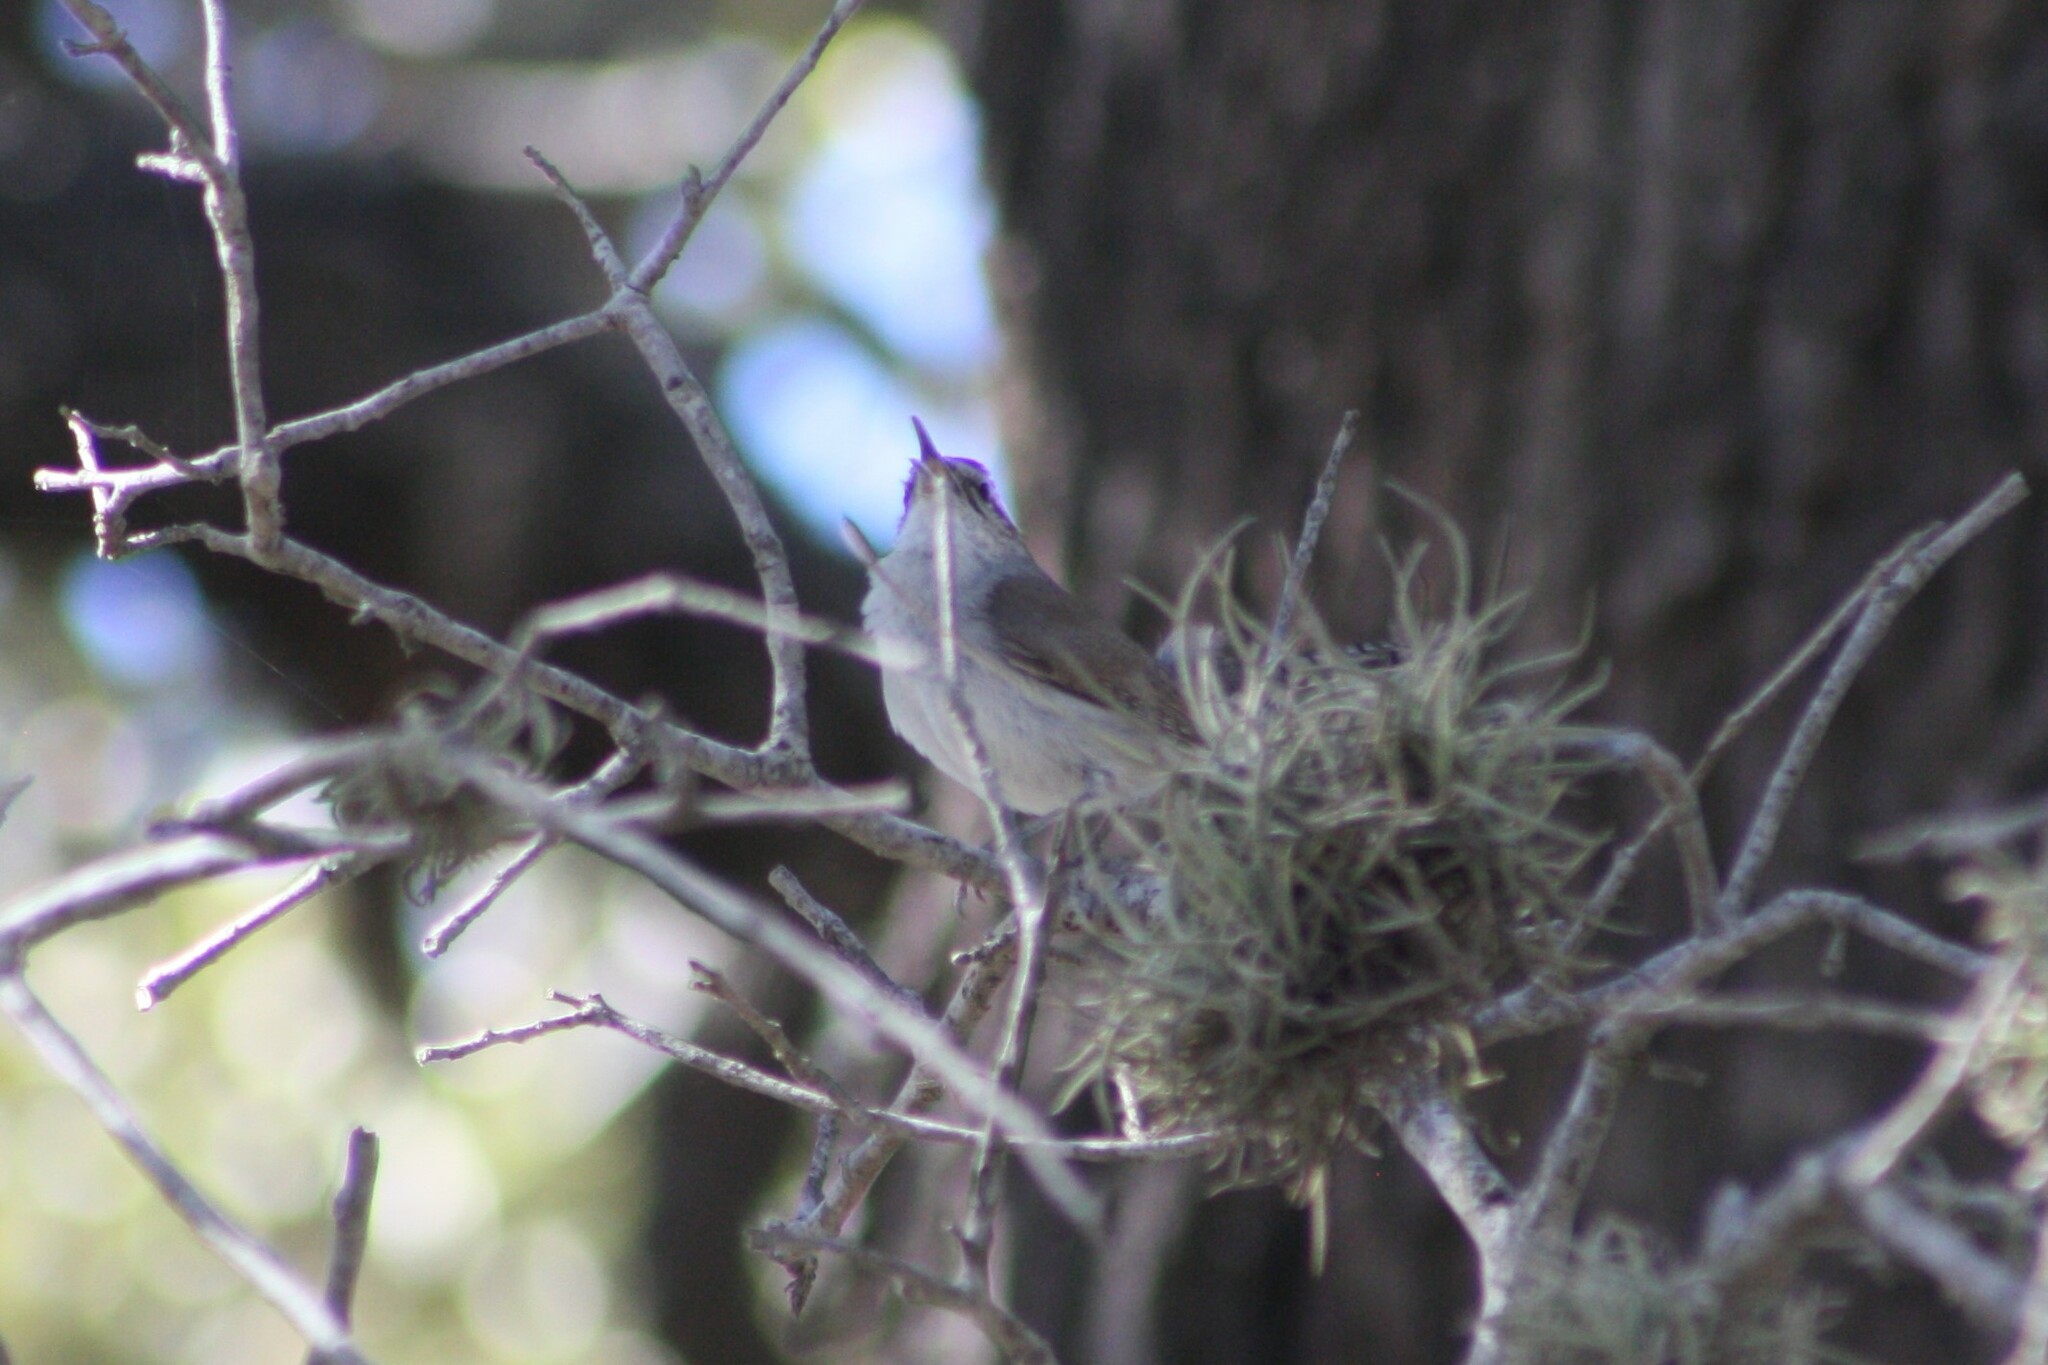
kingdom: Animalia
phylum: Chordata
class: Aves
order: Passeriformes
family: Troglodytidae
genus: Thryomanes
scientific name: Thryomanes bewickii
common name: Bewick's wren
